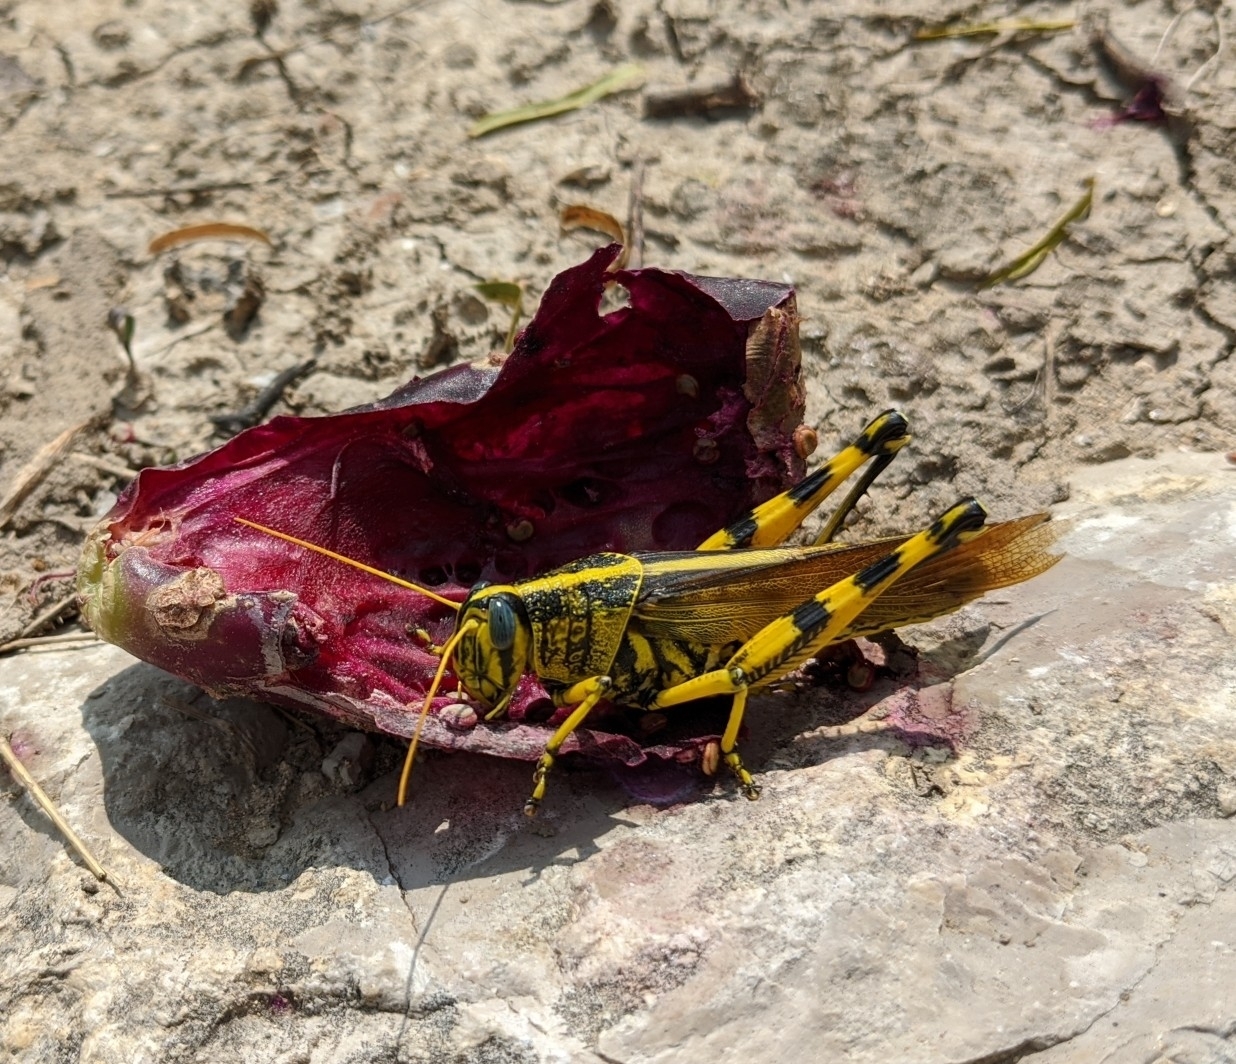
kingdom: Animalia
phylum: Arthropoda
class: Insecta
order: Orthoptera
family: Acrididae
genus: Schistocerca
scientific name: Schistocerca lineata
